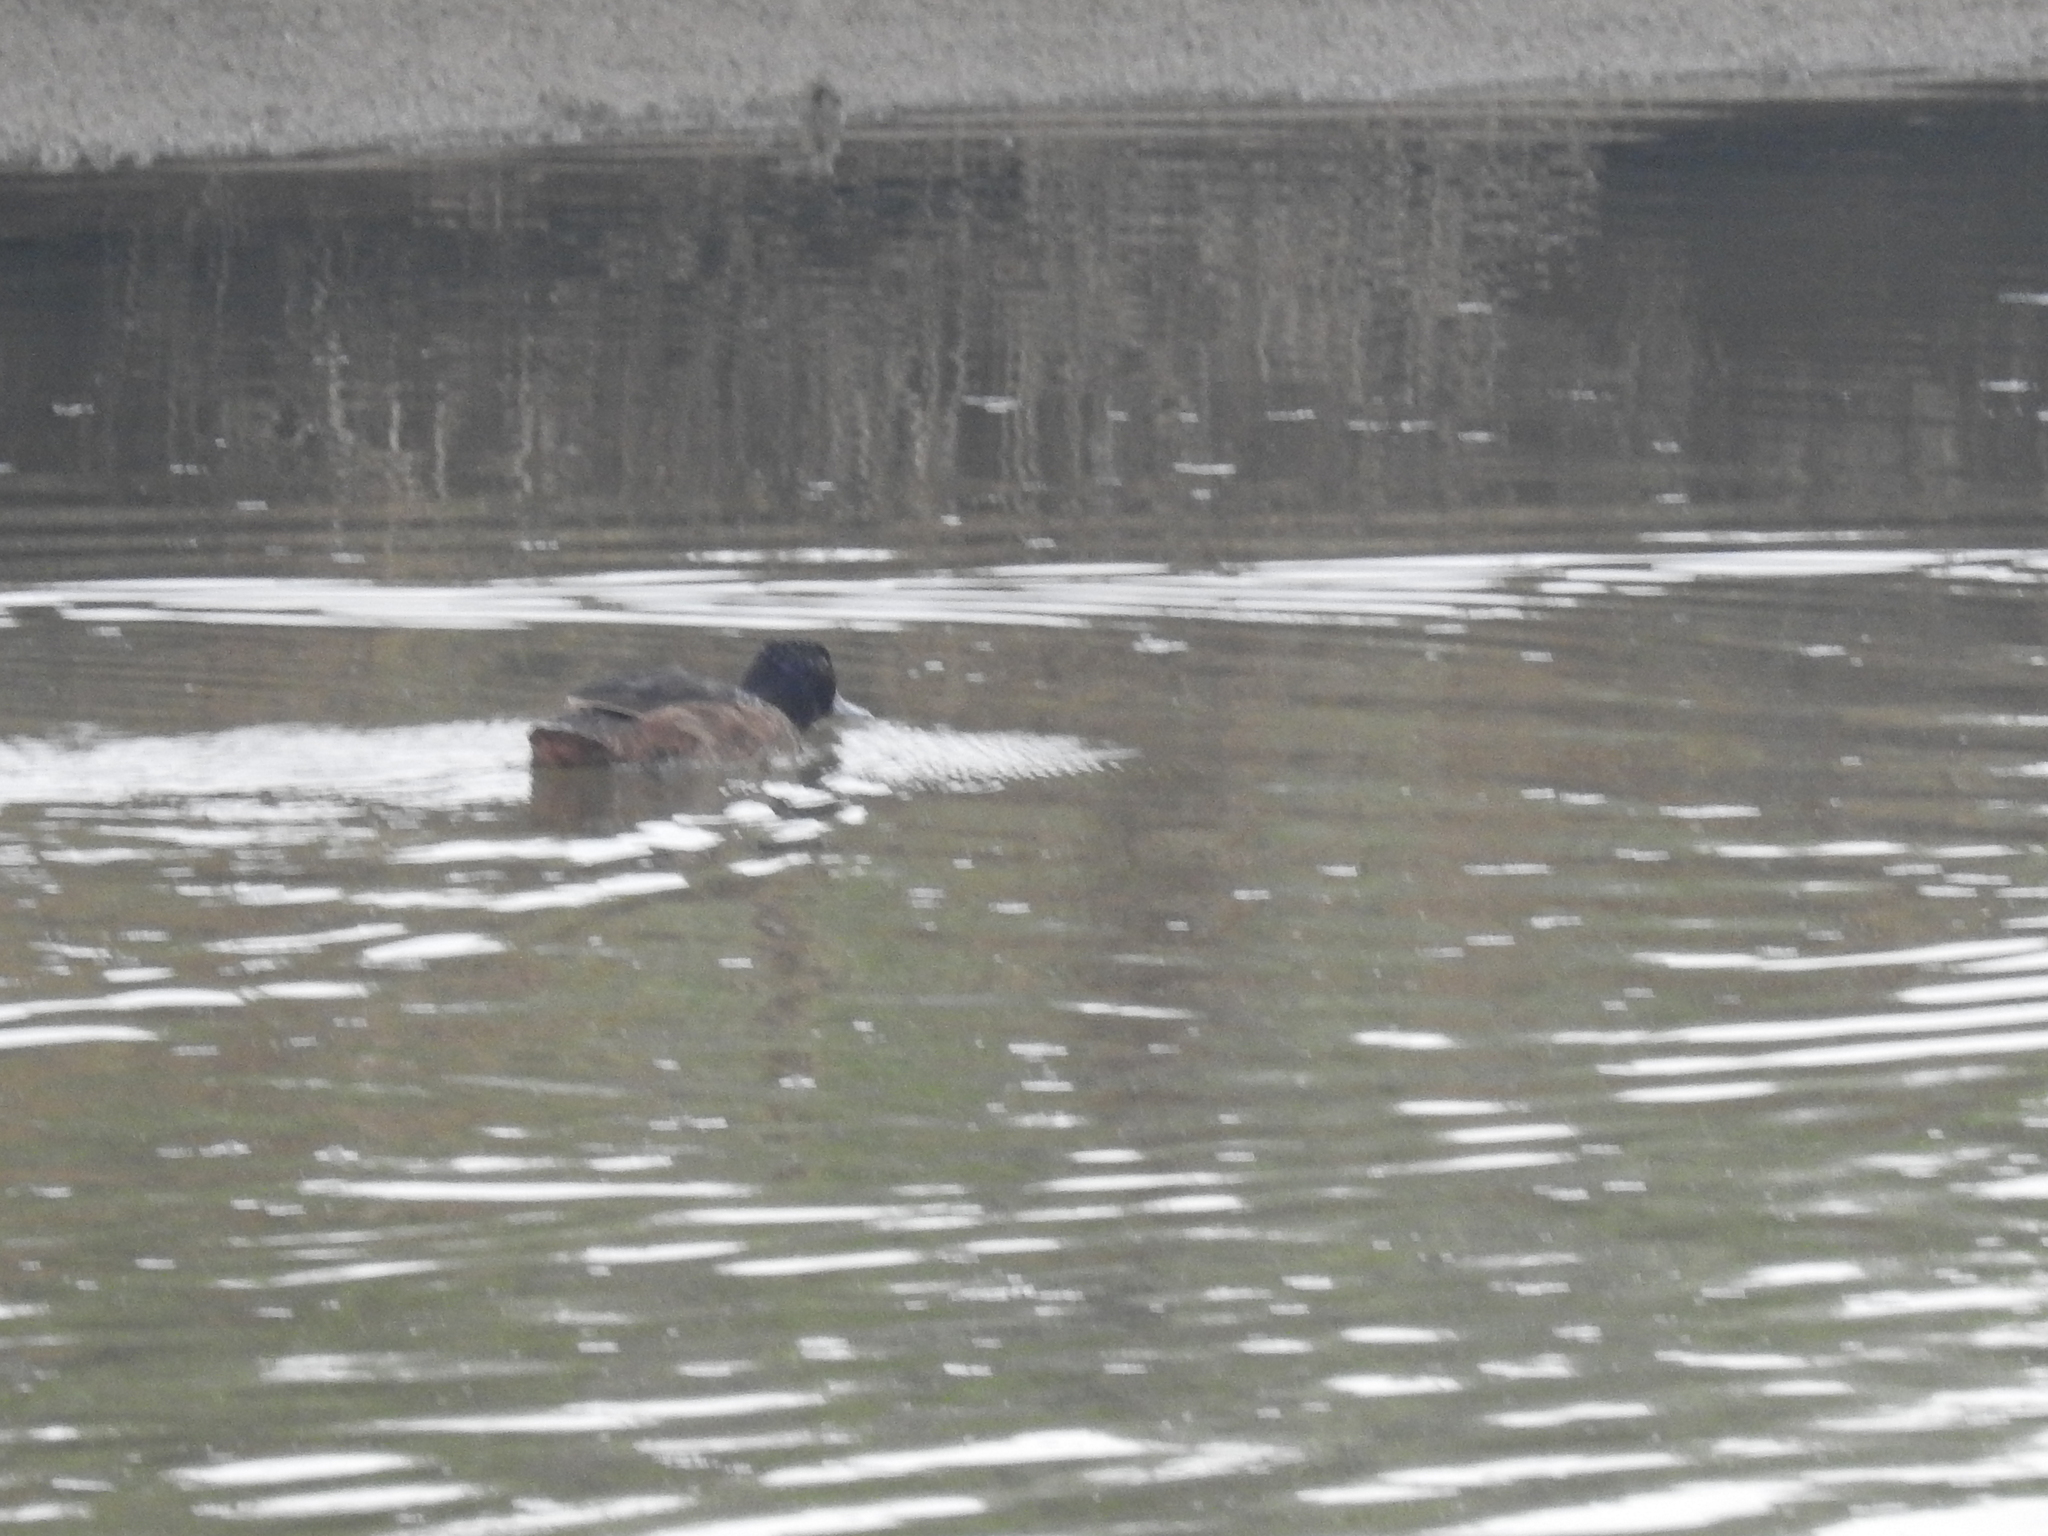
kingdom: Animalia
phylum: Chordata
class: Aves
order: Anseriformes
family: Anatidae
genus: Heteronetta
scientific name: Heteronetta atricapilla
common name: Black-headed duck
